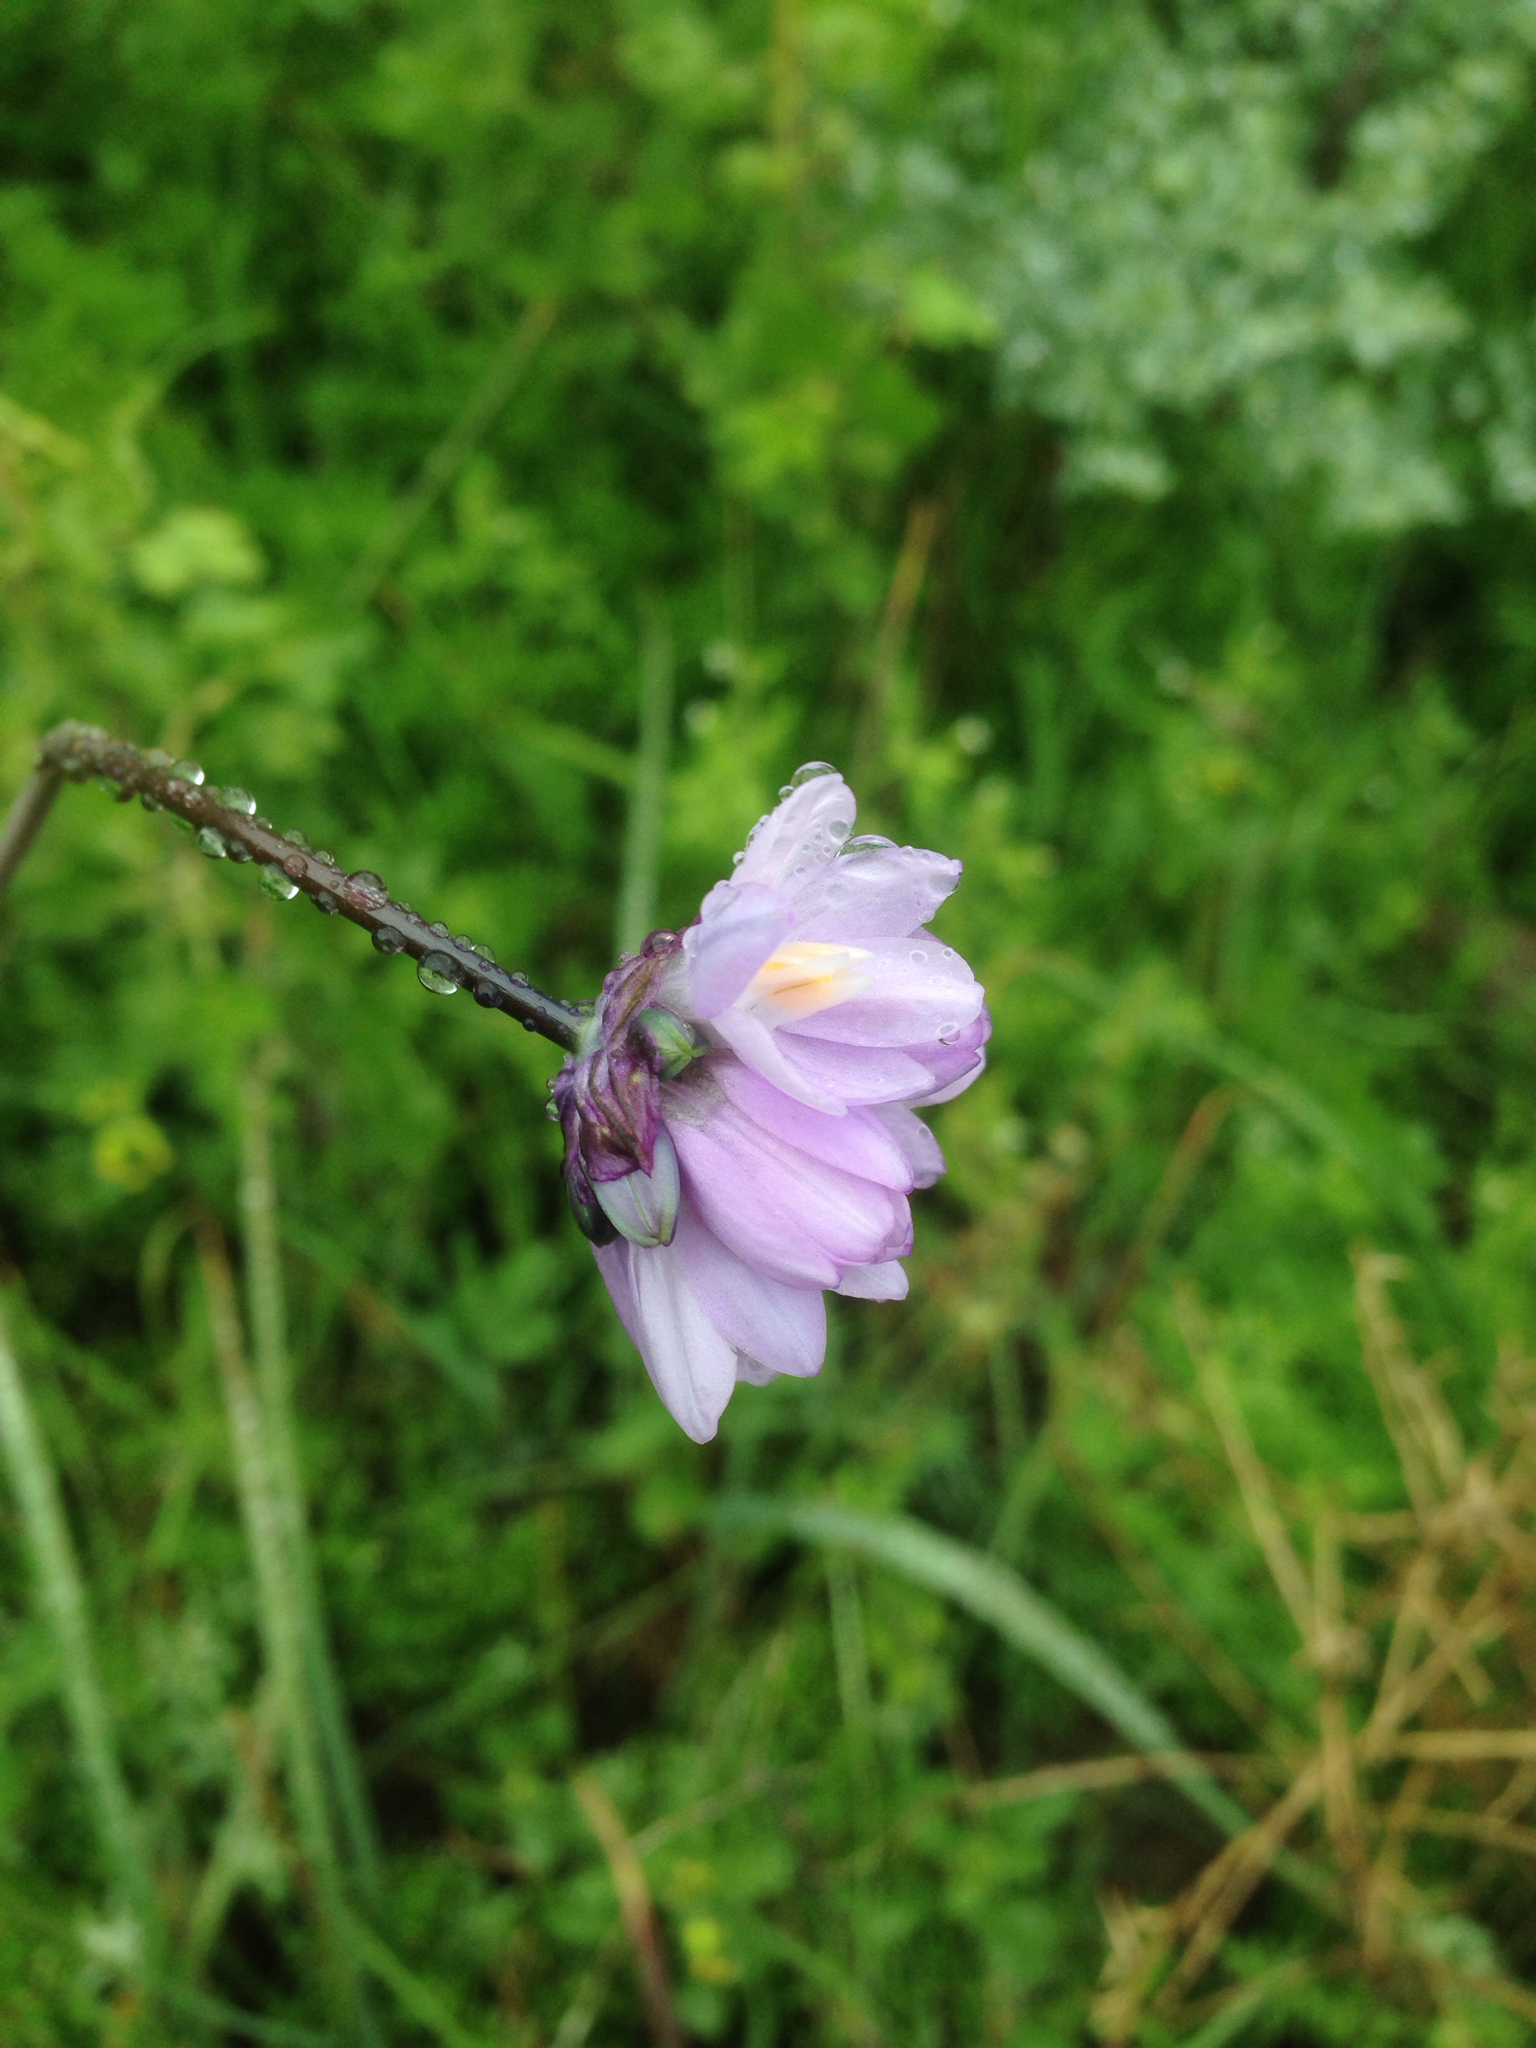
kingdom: Plantae
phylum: Tracheophyta
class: Liliopsida
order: Asparagales
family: Asparagaceae
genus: Dipterostemon
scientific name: Dipterostemon capitatus
